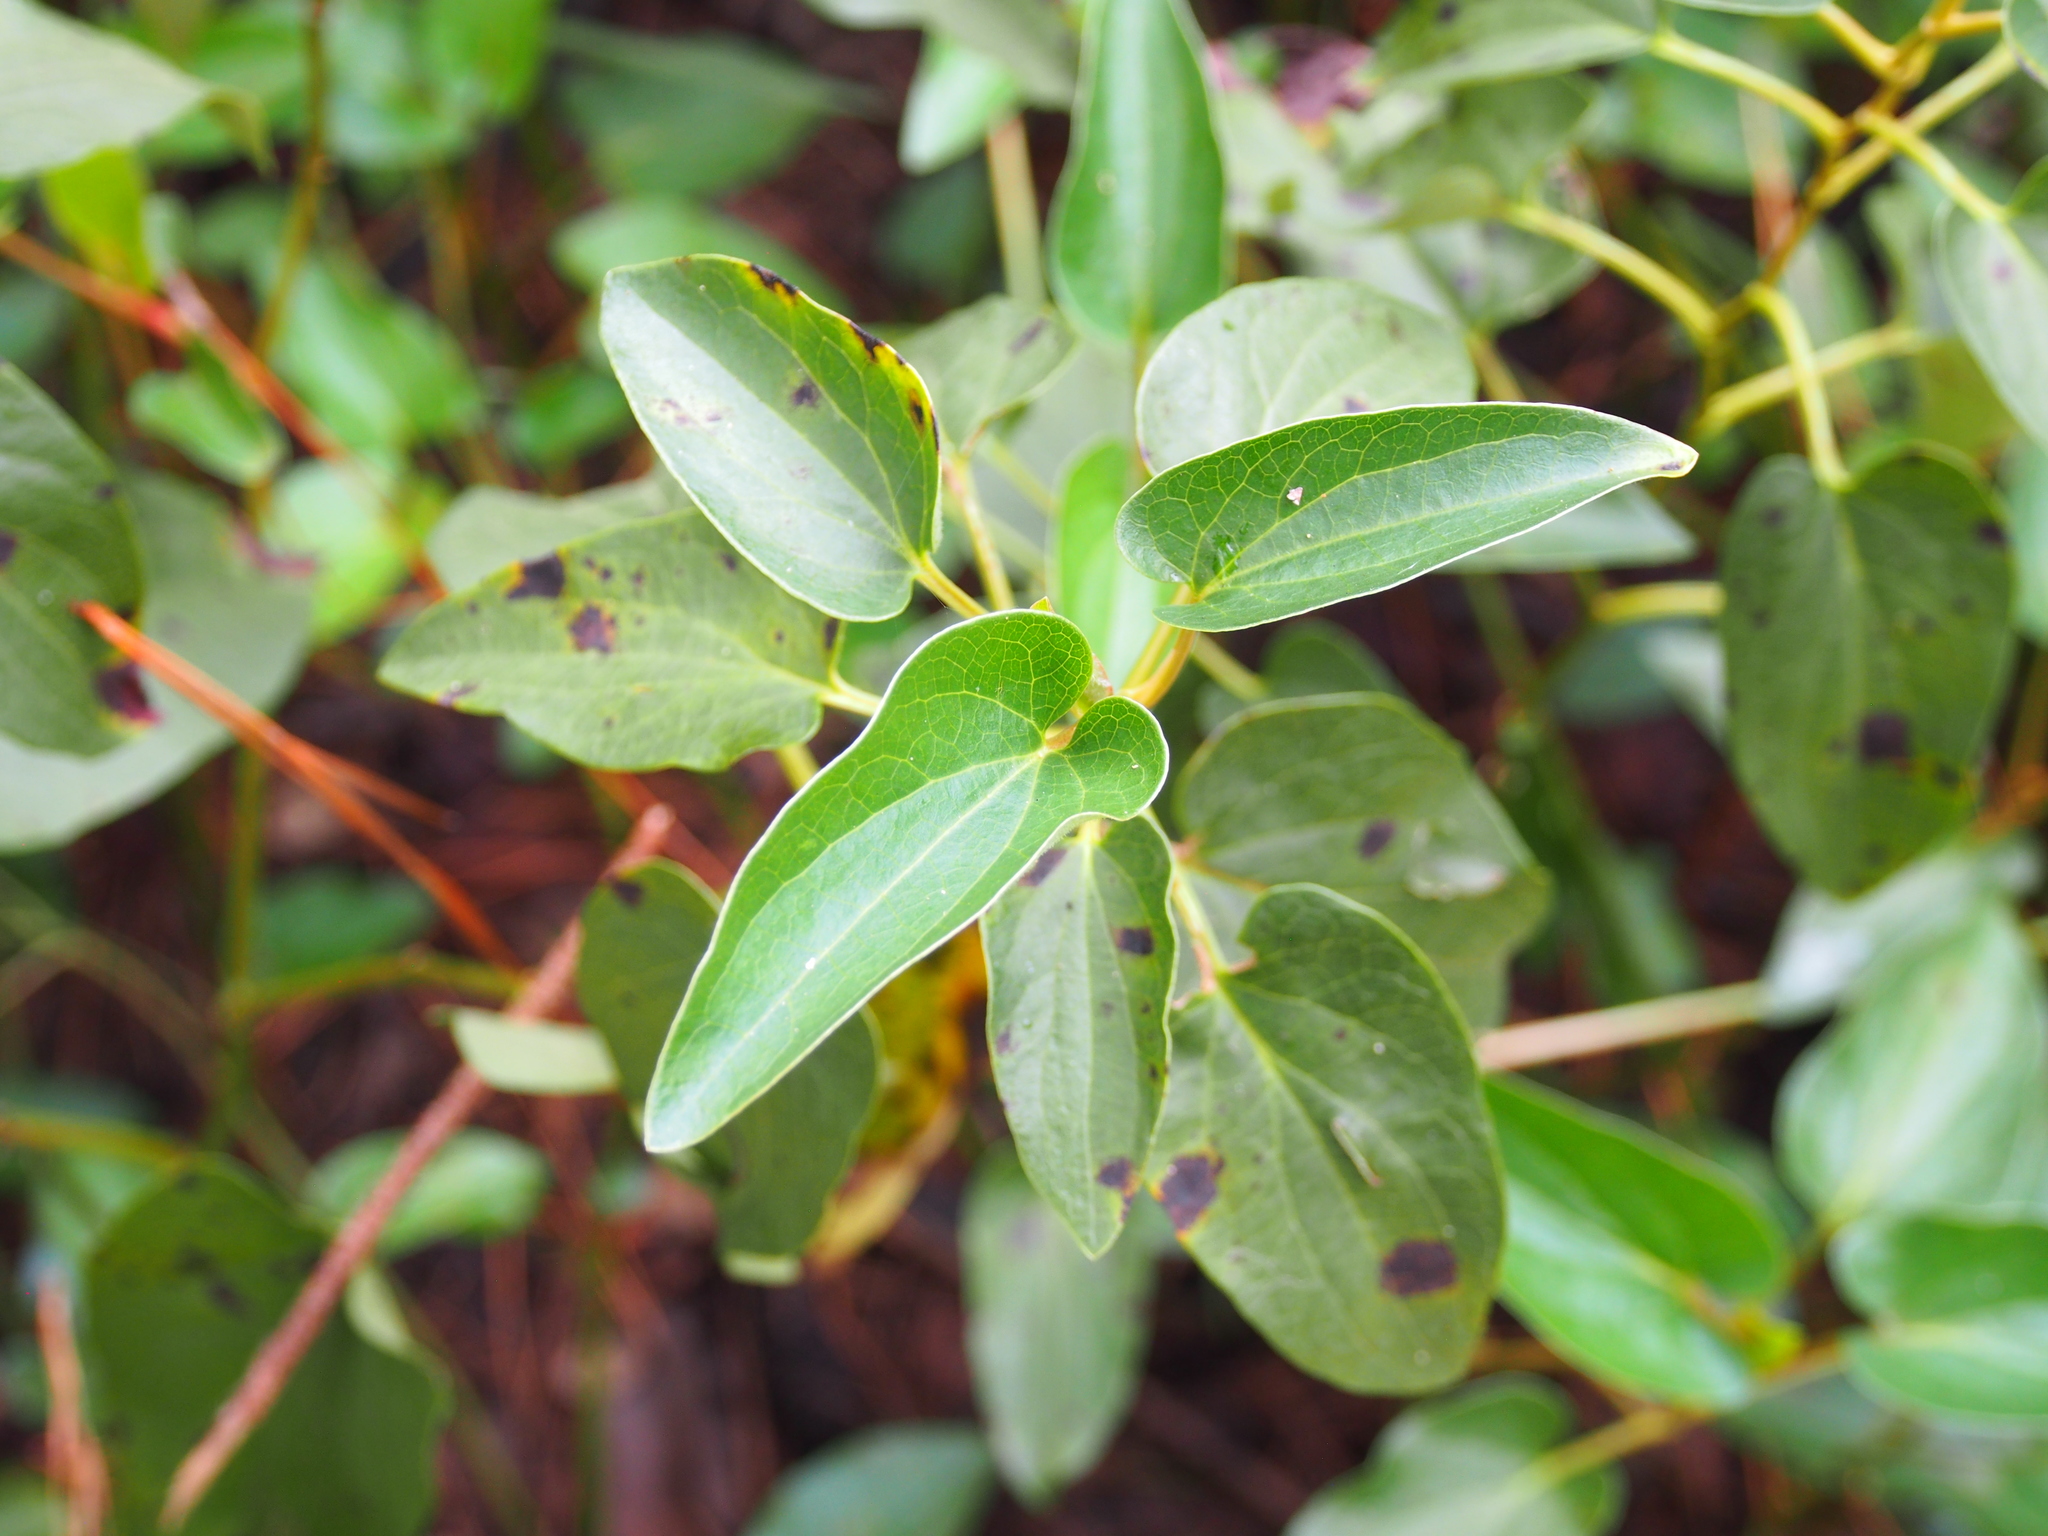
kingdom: Plantae
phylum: Tracheophyta
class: Magnoliopsida
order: Piperales
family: Saururaceae
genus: Saururus
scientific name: Saururus cernuus
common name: Lizard's-tail
